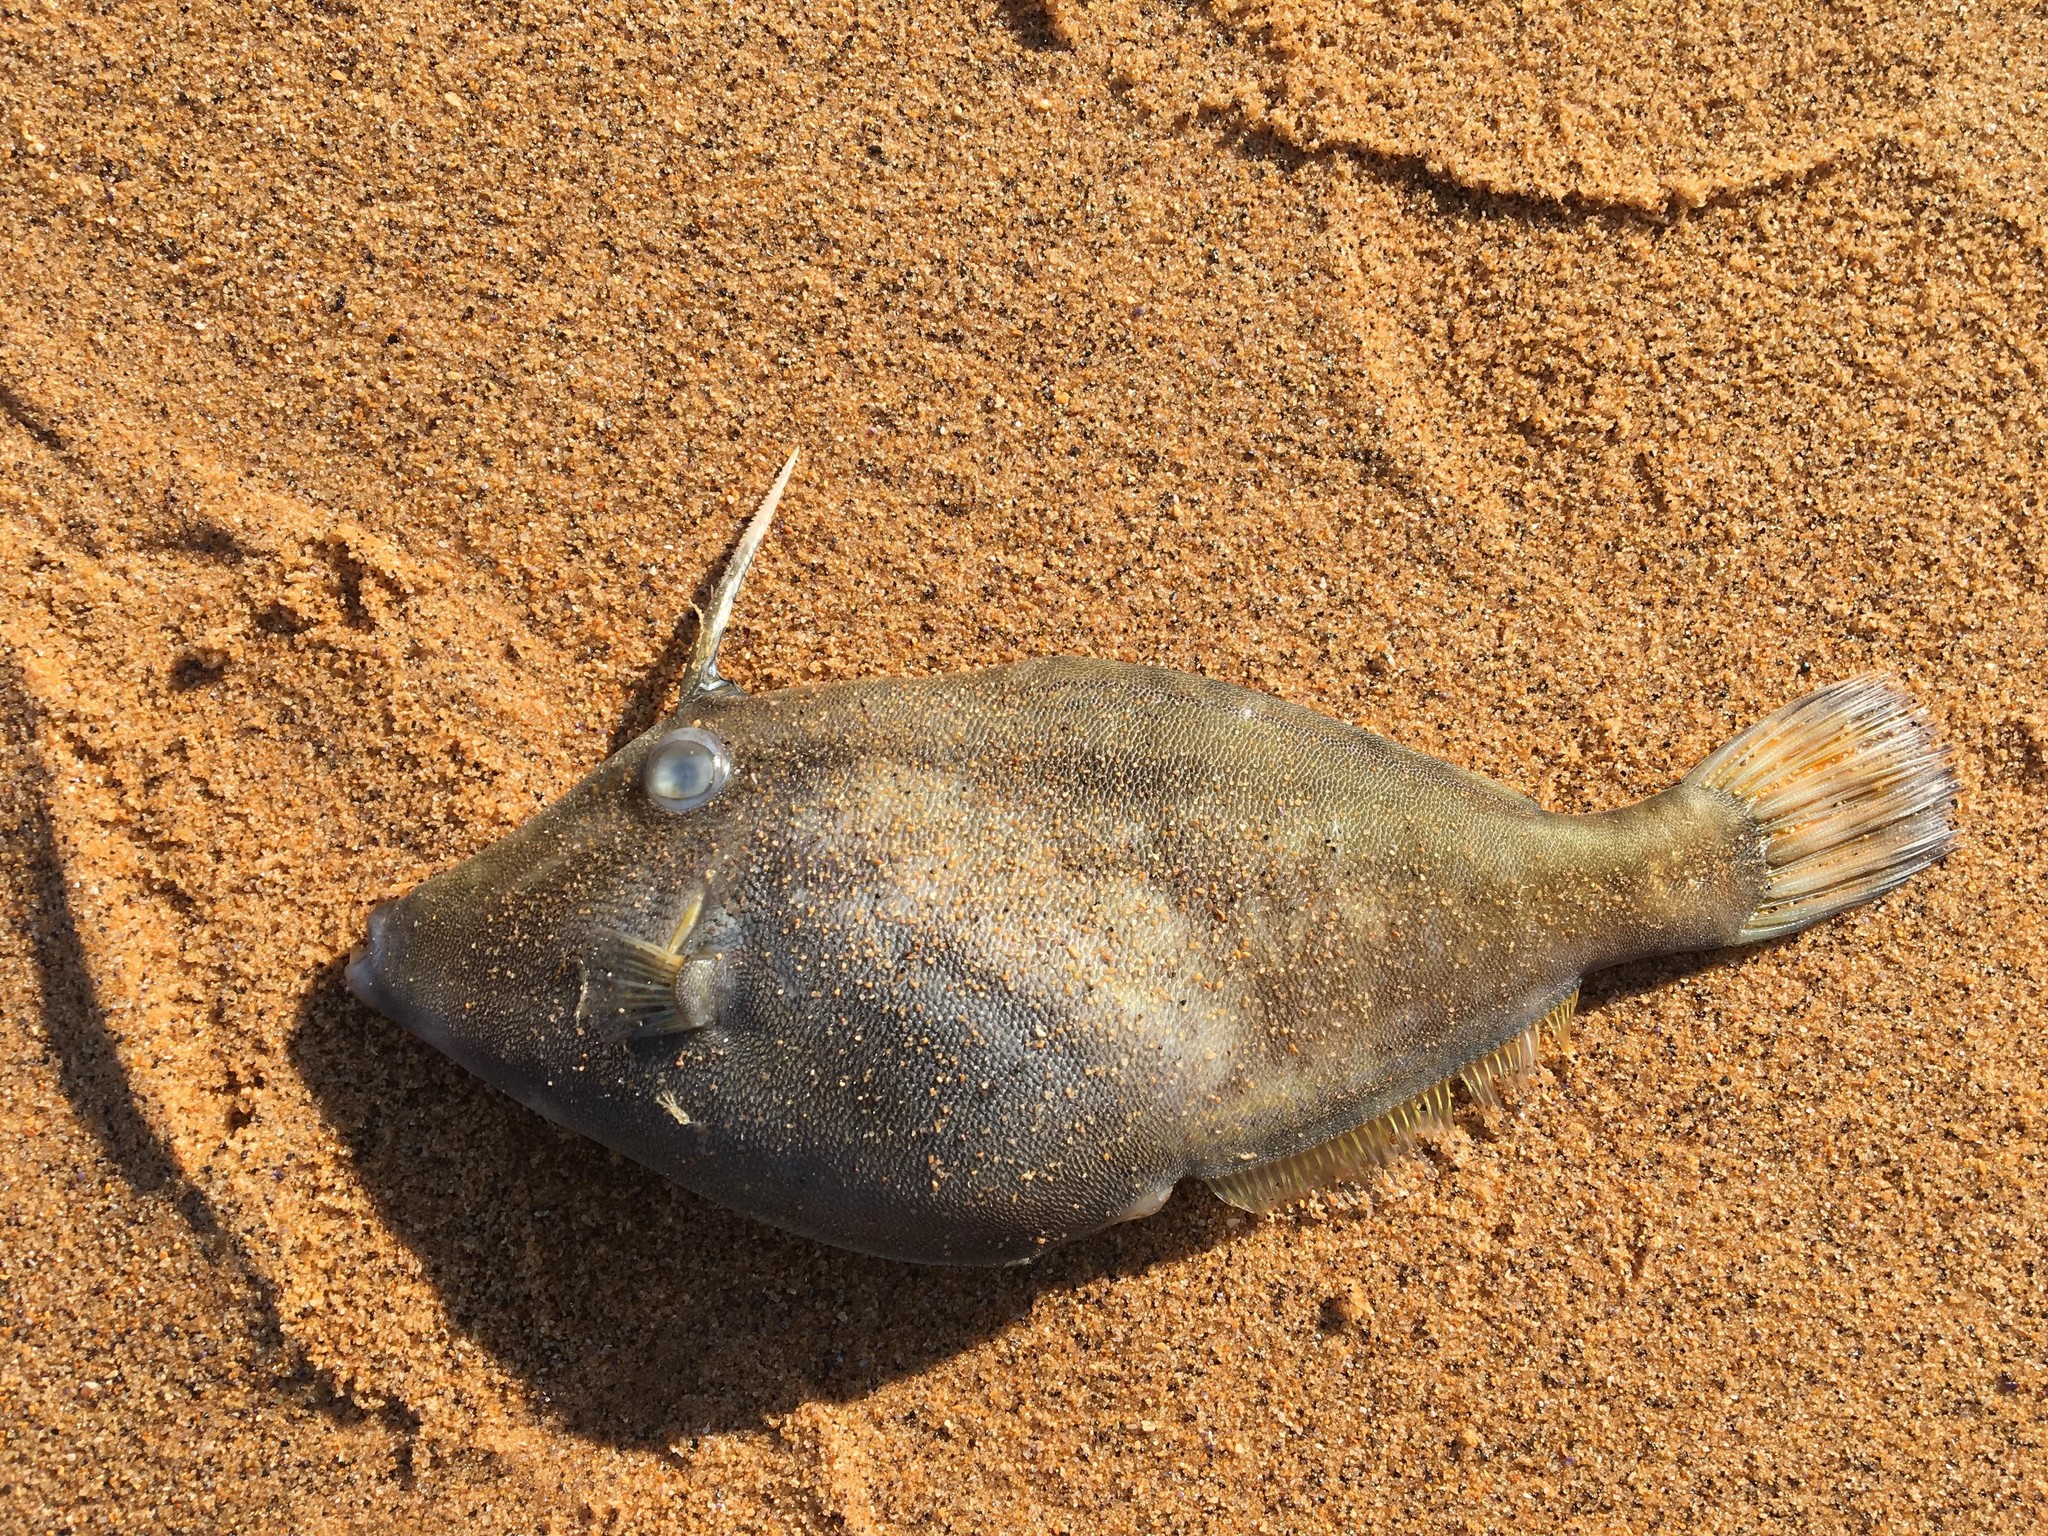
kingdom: Animalia
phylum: Chordata
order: Tetraodontiformes
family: Monacanthidae
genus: Meuschenia
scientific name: Meuschenia trachylepis
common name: Yellowfin leatherjacket
